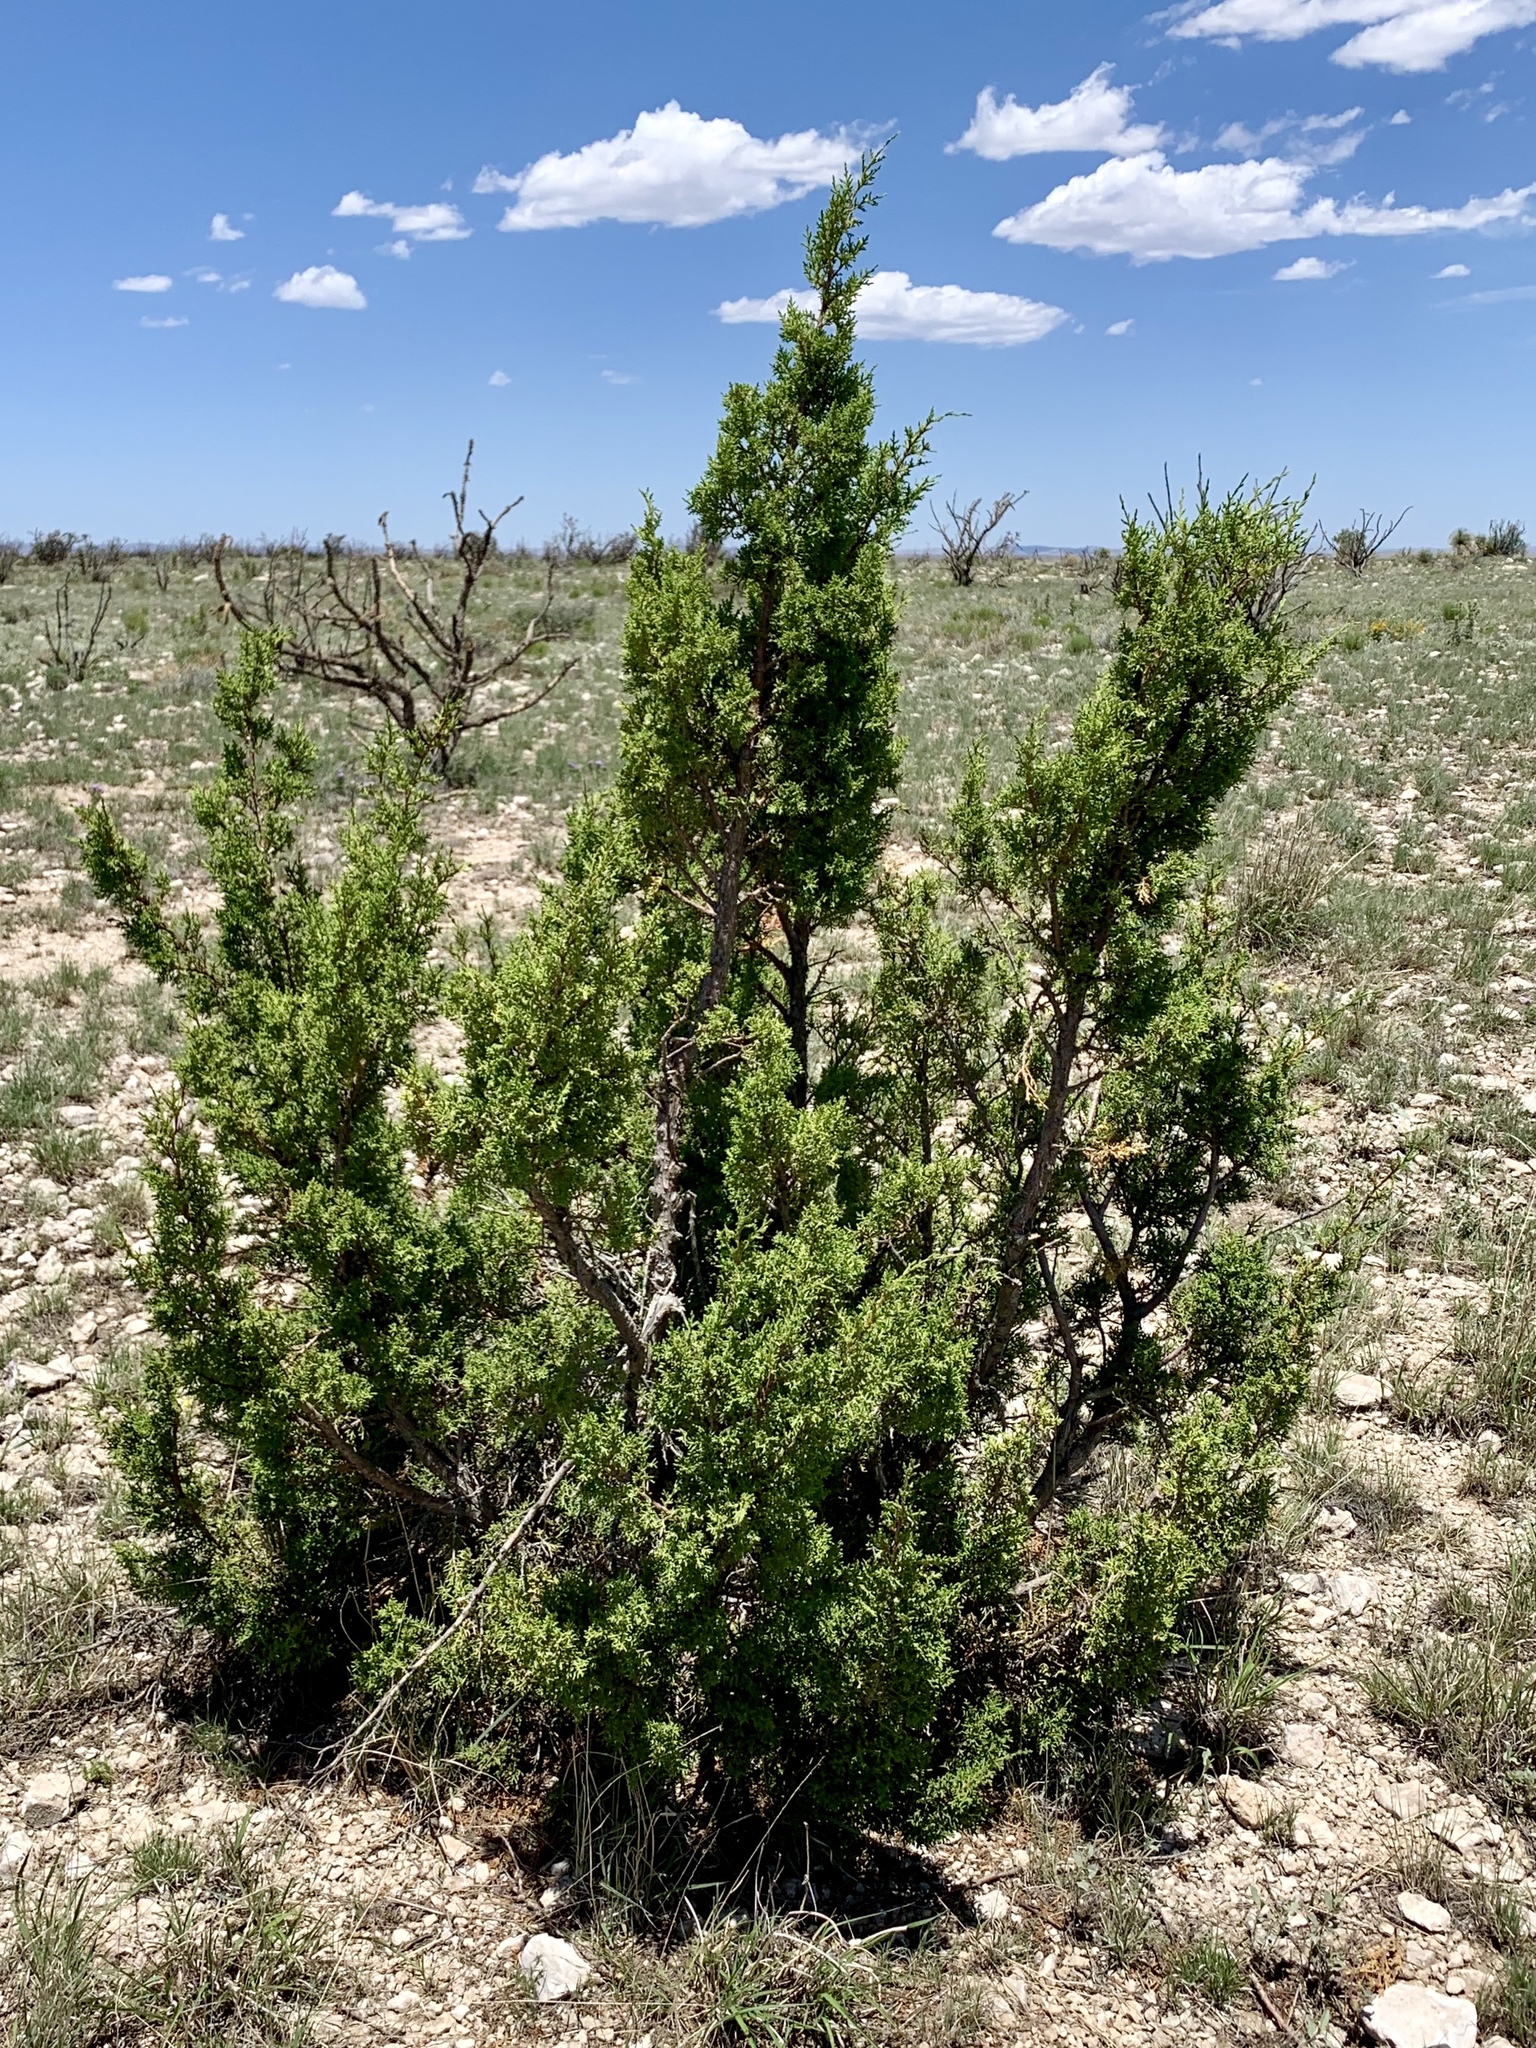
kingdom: Plantae
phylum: Tracheophyta
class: Pinopsida
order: Pinales
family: Cupressaceae
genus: Juniperus
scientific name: Juniperus monosperma
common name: One-seed juniper
